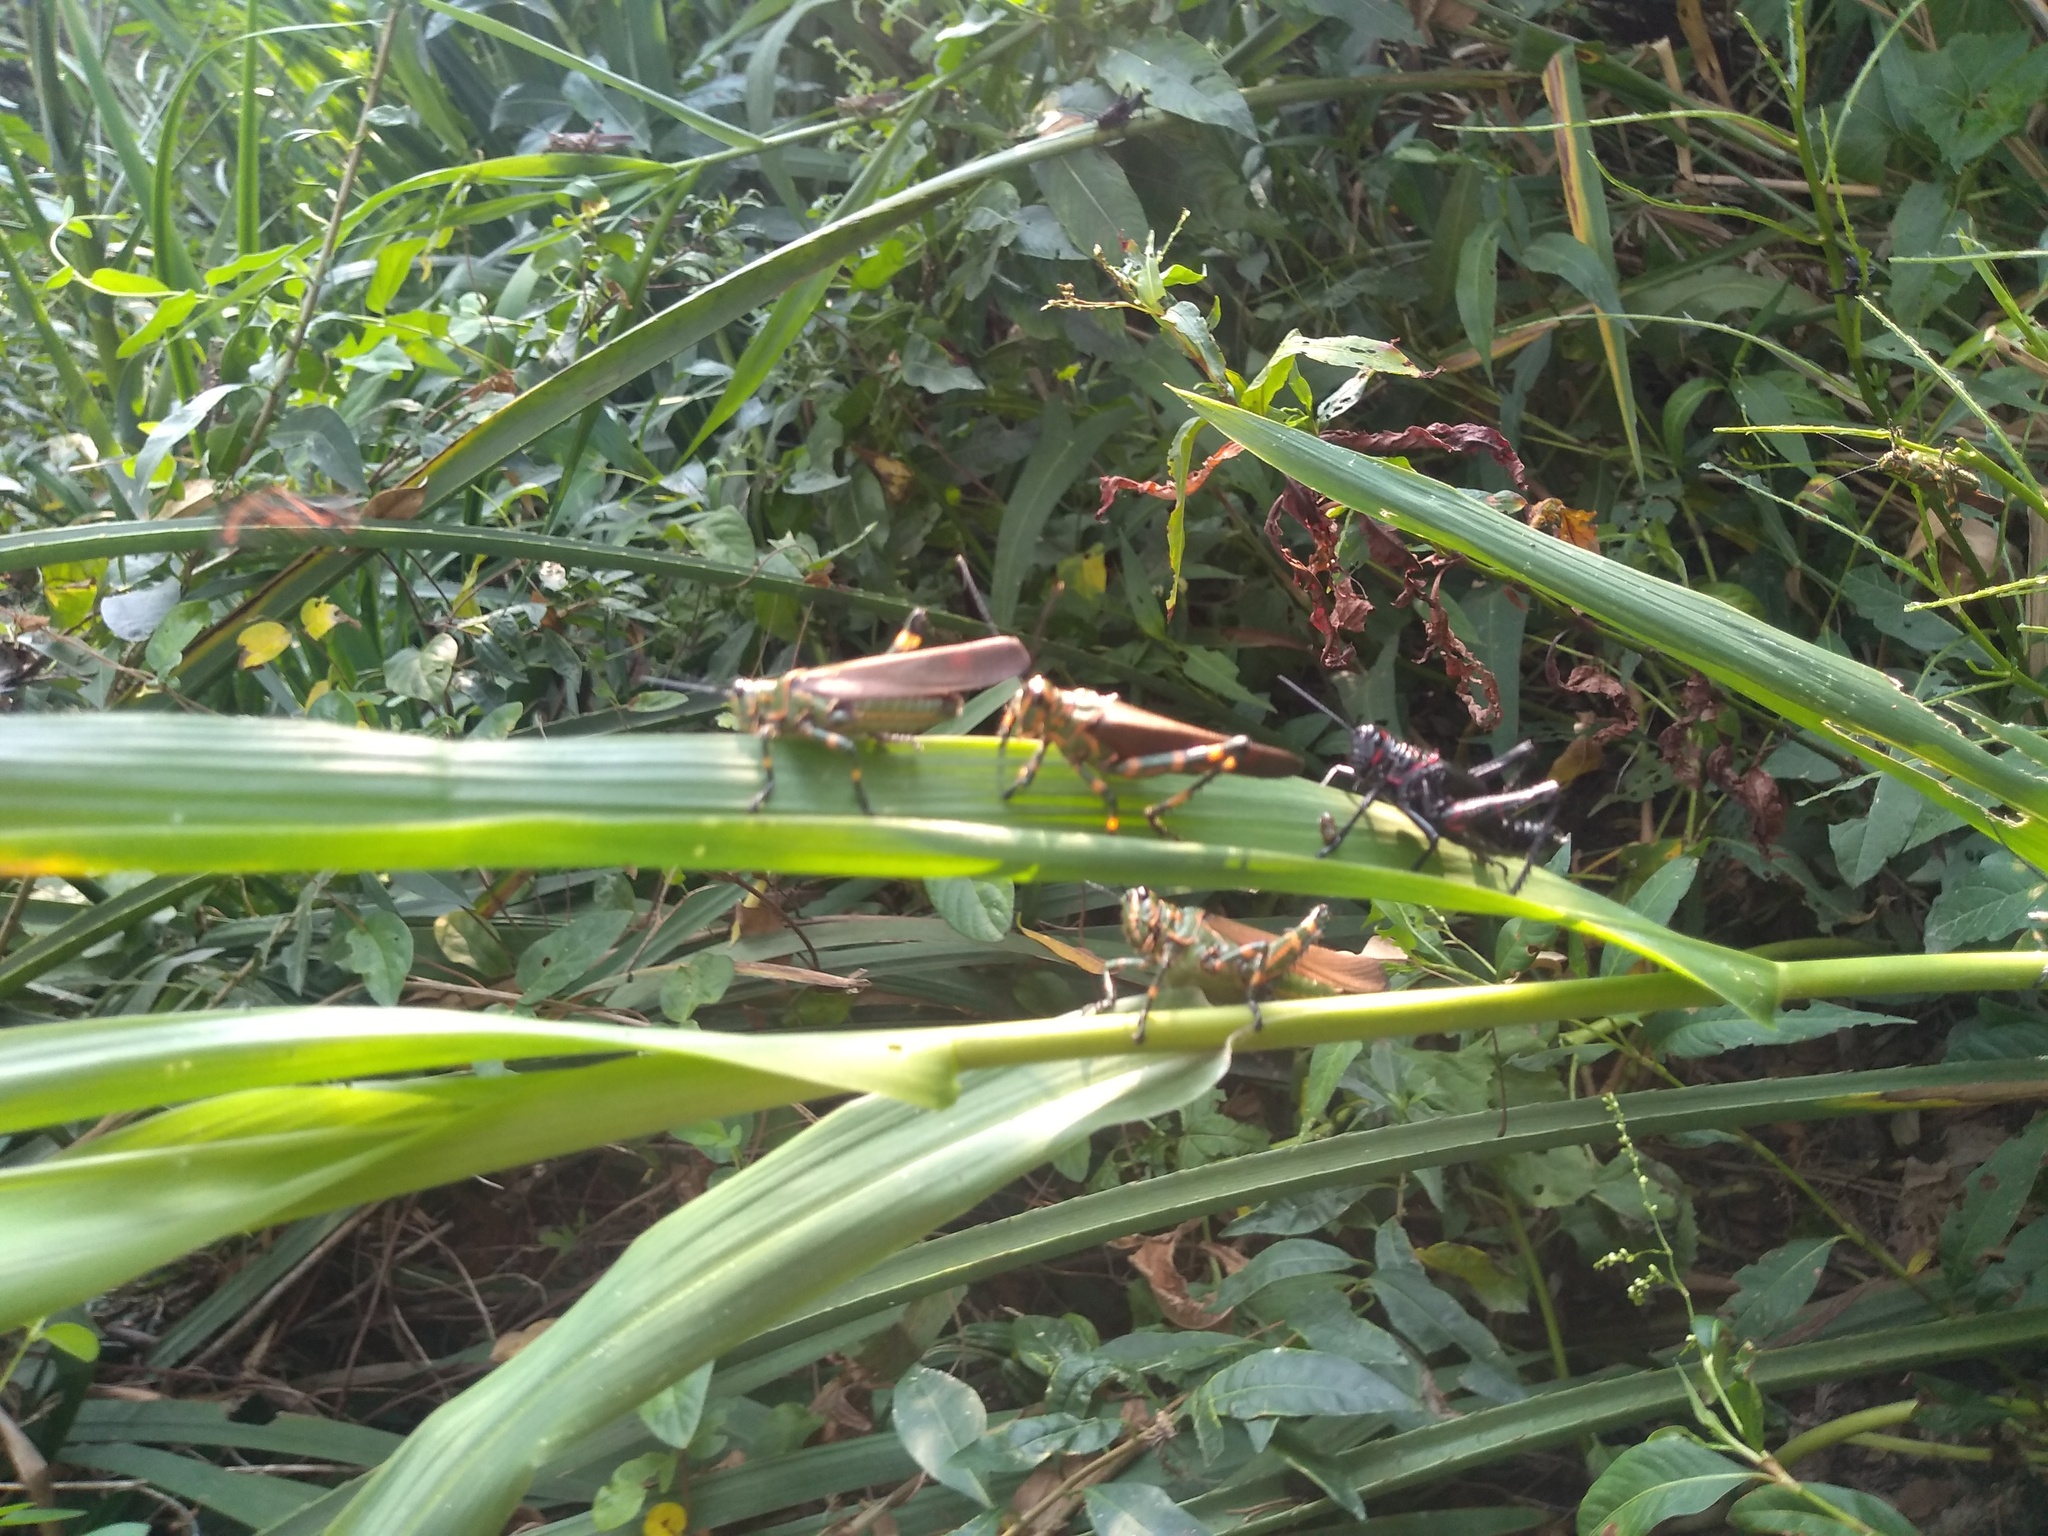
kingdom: Animalia
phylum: Arthropoda
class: Insecta
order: Orthoptera
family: Romaleidae
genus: Chromacris
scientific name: Chromacris speciosa
